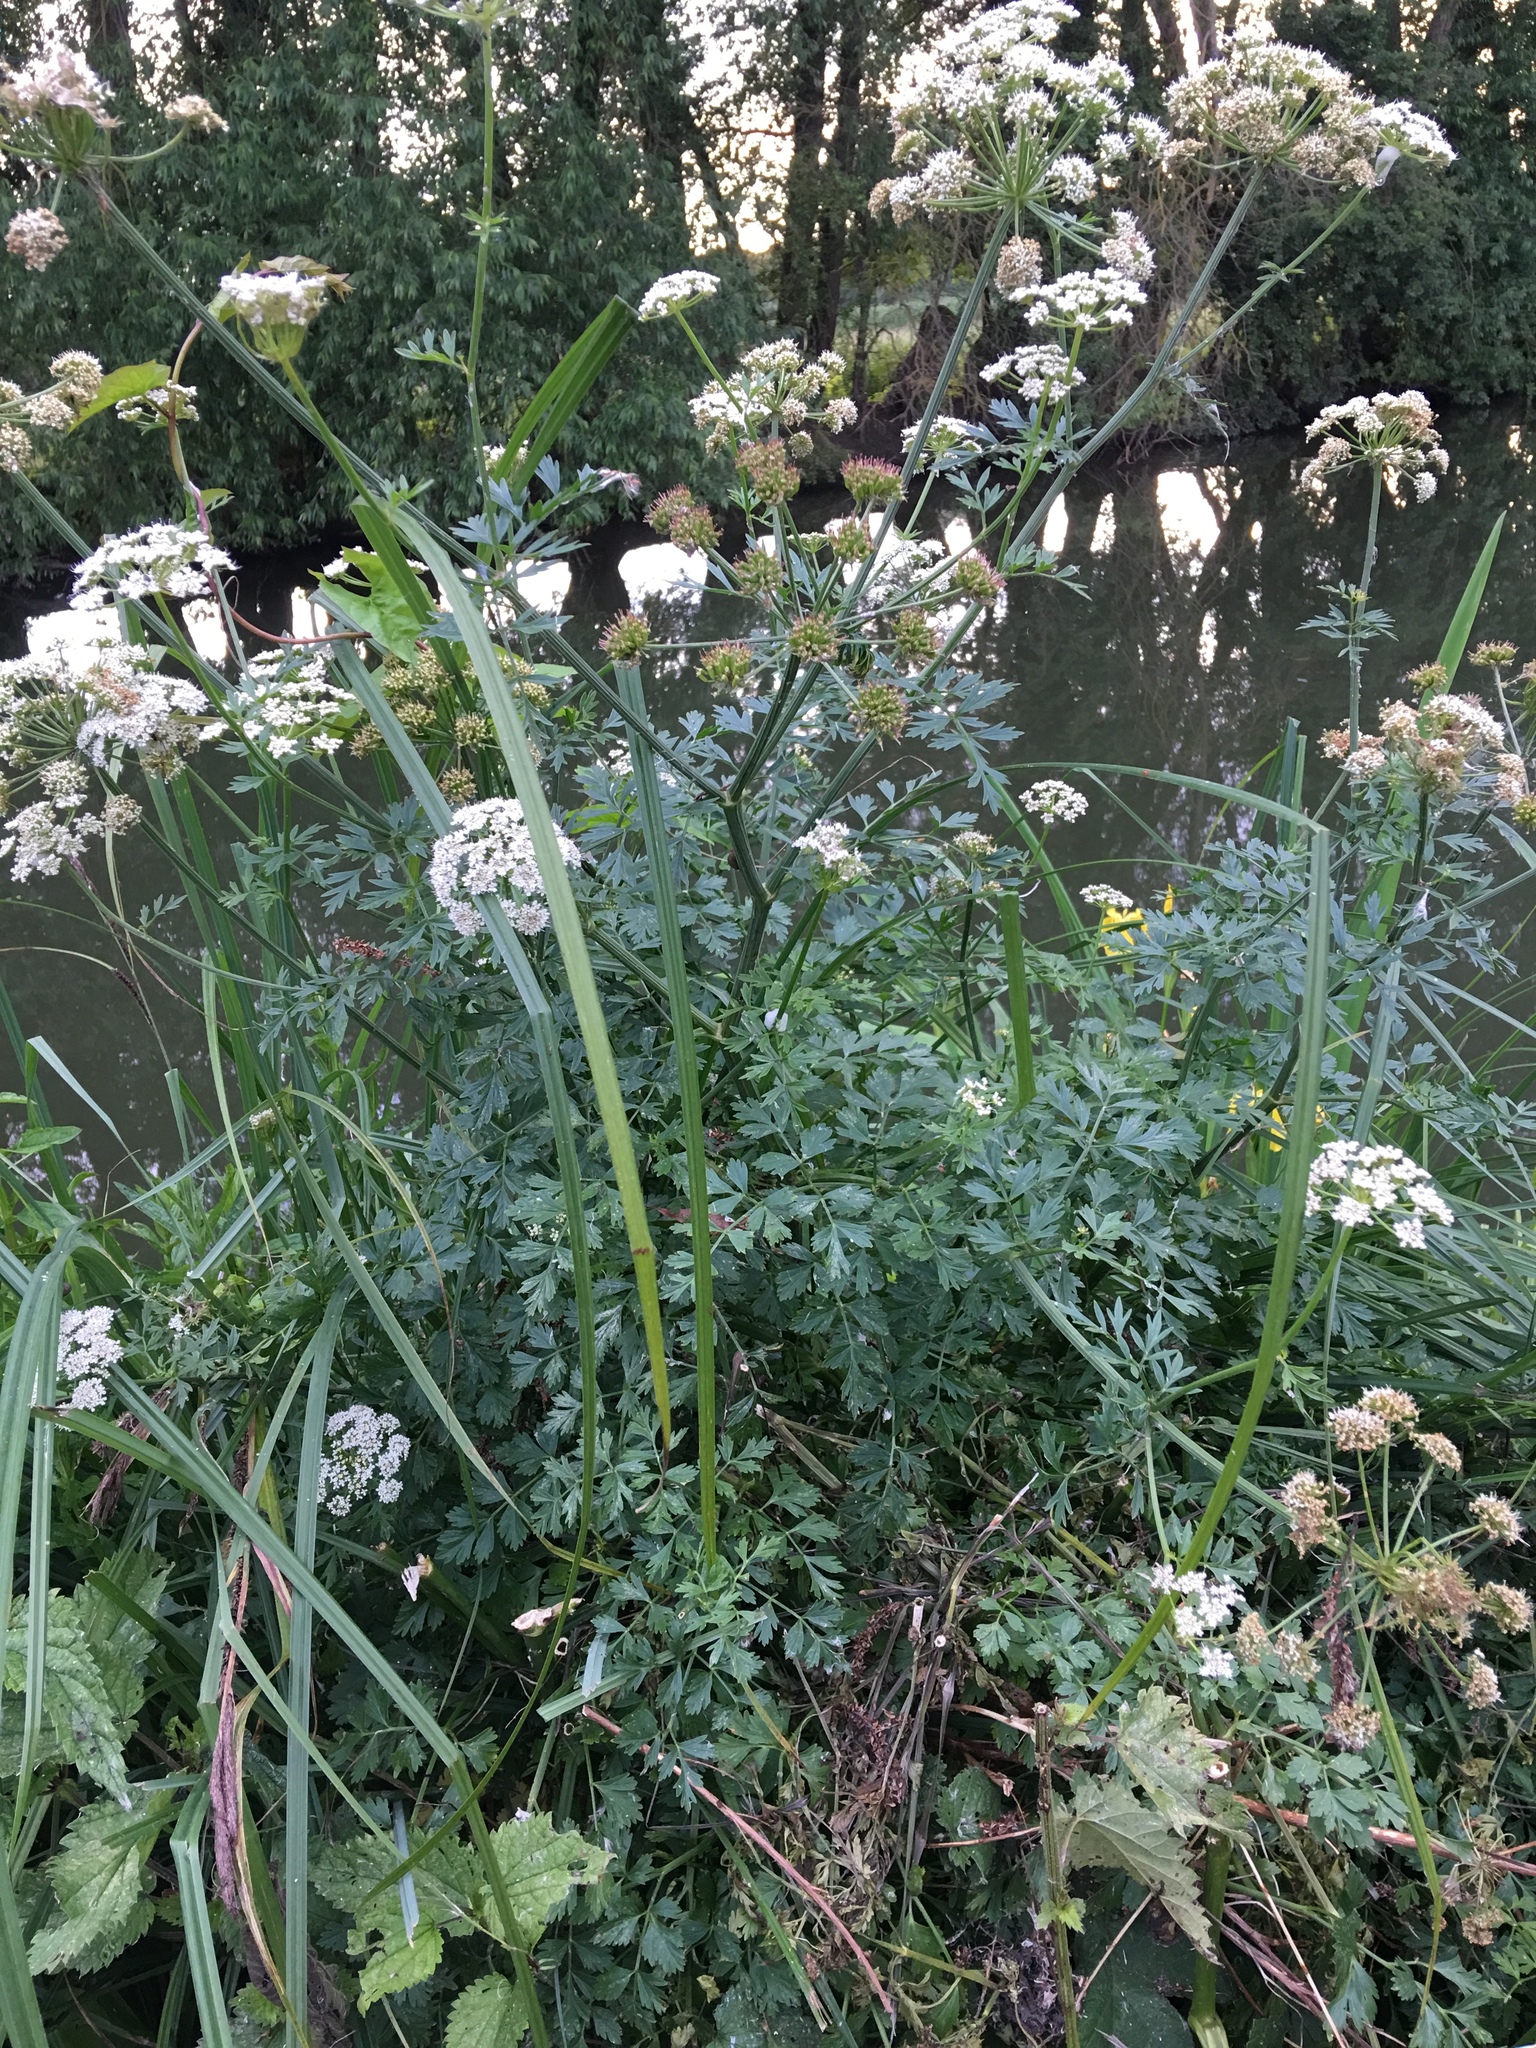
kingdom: Plantae
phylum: Tracheophyta
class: Magnoliopsida
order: Apiales
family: Apiaceae
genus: Oenanthe
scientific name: Oenanthe crocata
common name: Hemlock water-dropwort
